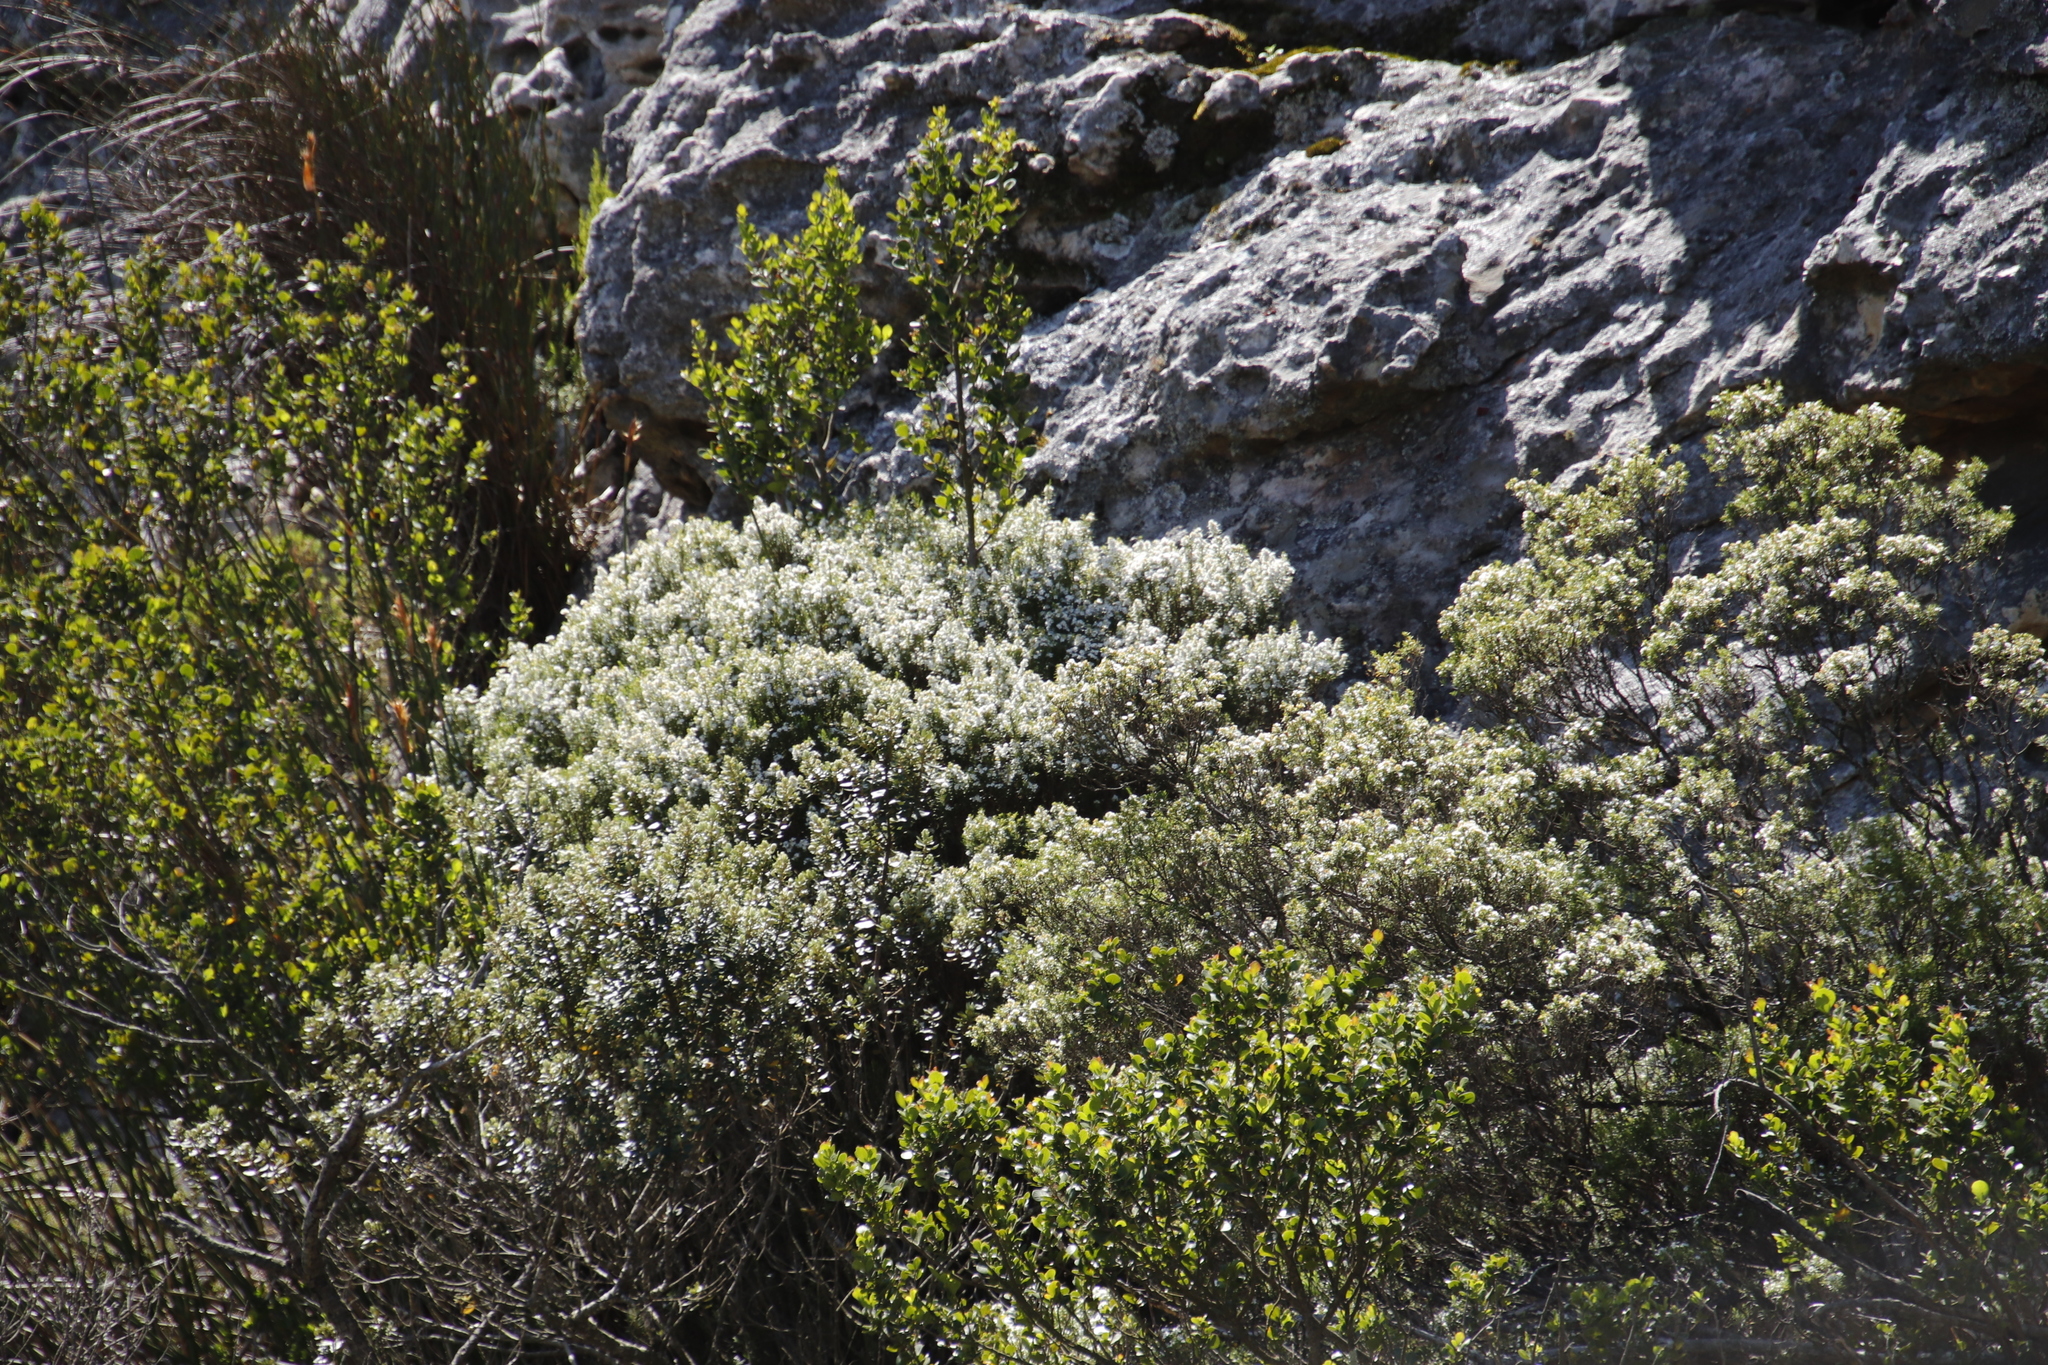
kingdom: Plantae
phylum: Tracheophyta
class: Magnoliopsida
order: Sapindales
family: Rutaceae
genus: Coleonema
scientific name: Coleonema album
